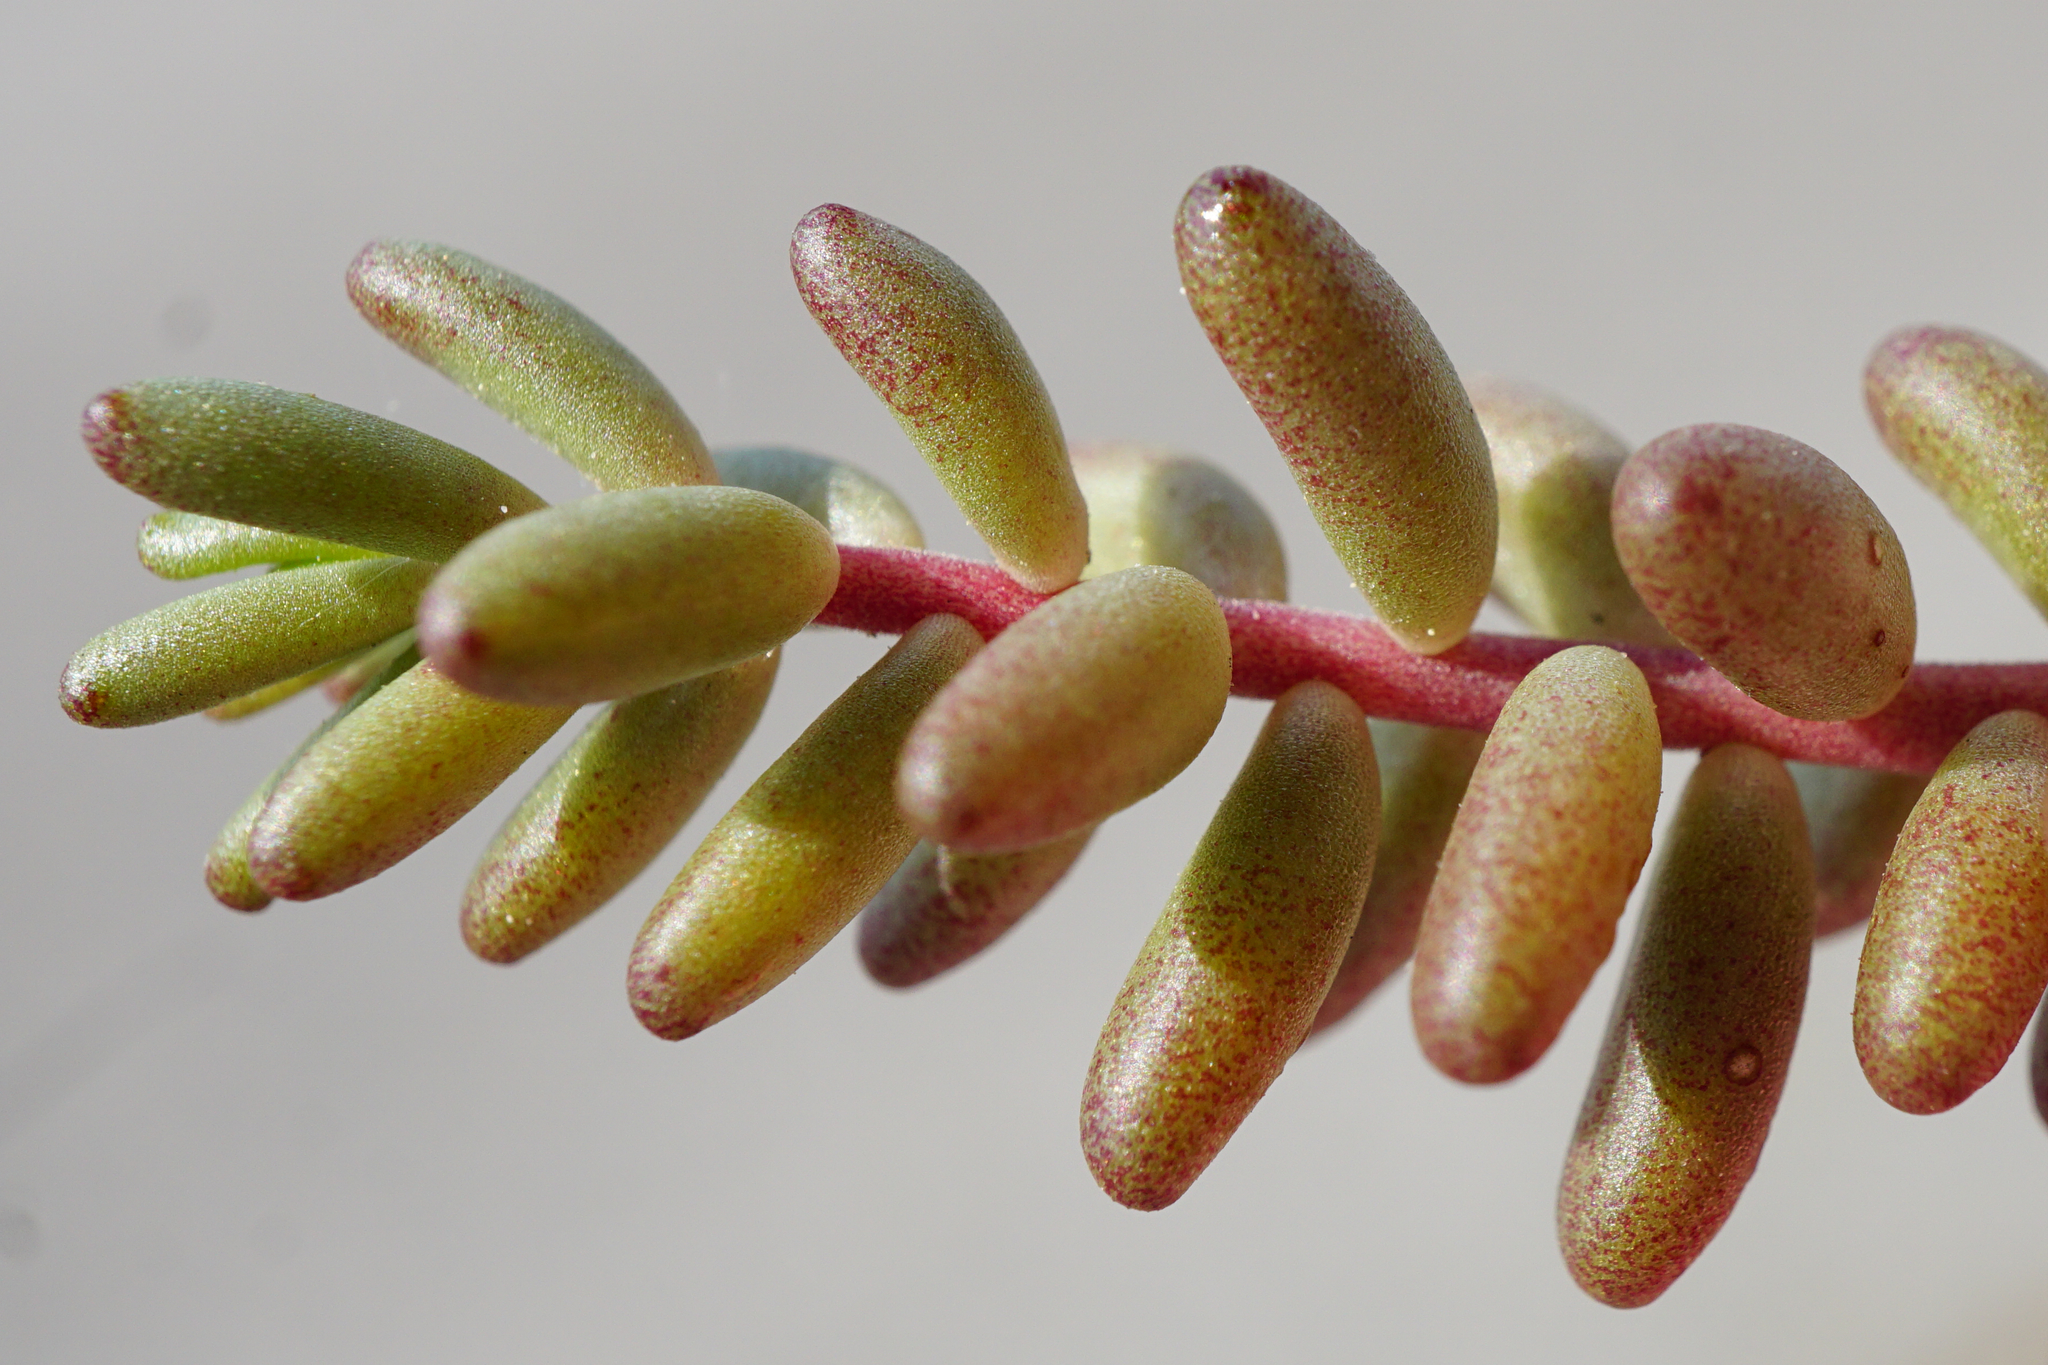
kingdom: Plantae
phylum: Tracheophyta
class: Magnoliopsida
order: Saxifragales
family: Crassulaceae
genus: Sedum
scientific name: Sedum album
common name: White stonecrop
